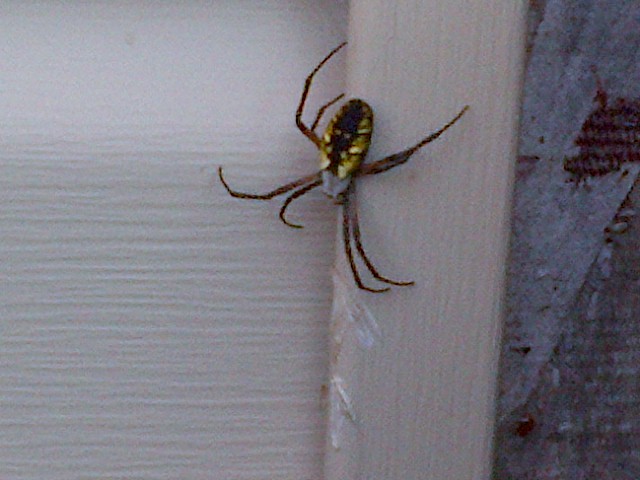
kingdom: Animalia
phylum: Arthropoda
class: Arachnida
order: Araneae
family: Araneidae
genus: Argiope
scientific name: Argiope aurantia
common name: Orb weavers
